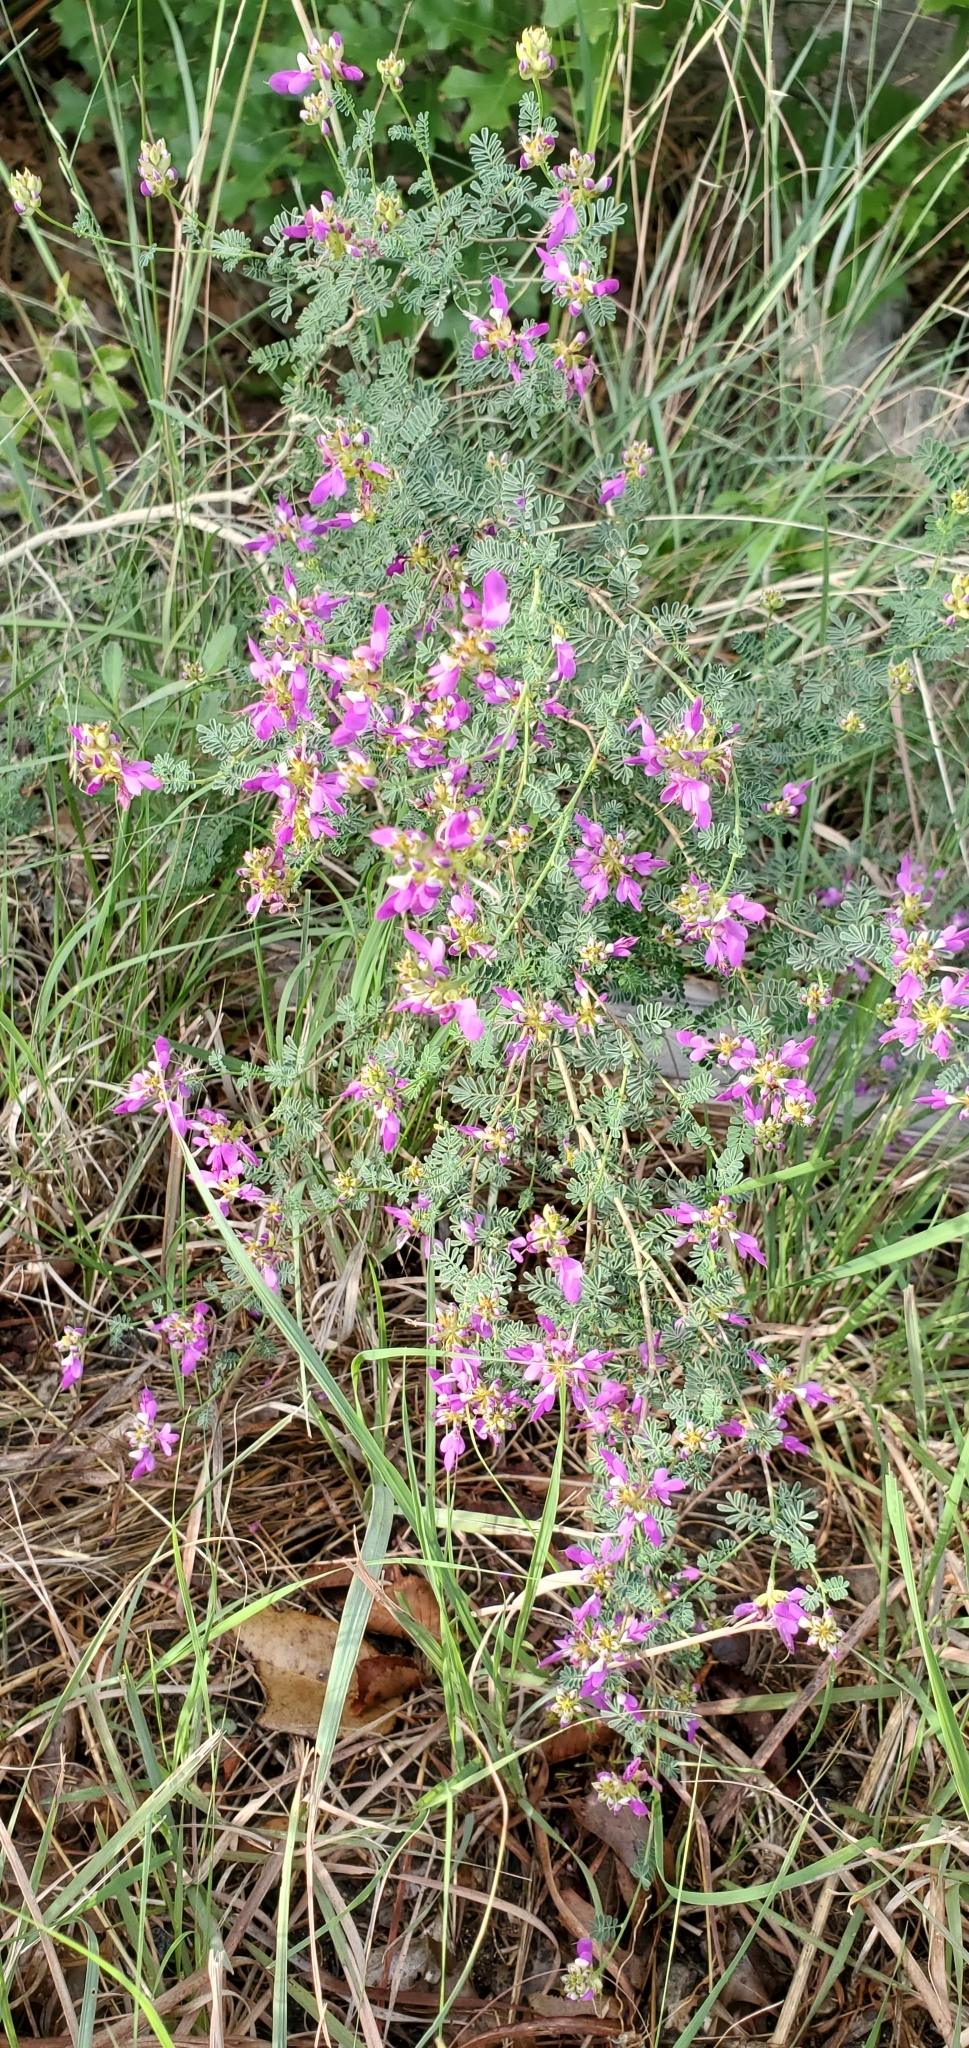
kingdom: Plantae
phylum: Tracheophyta
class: Magnoliopsida
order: Fabales
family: Fabaceae
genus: Dalea
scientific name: Dalea frutescens
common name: Black dalea
